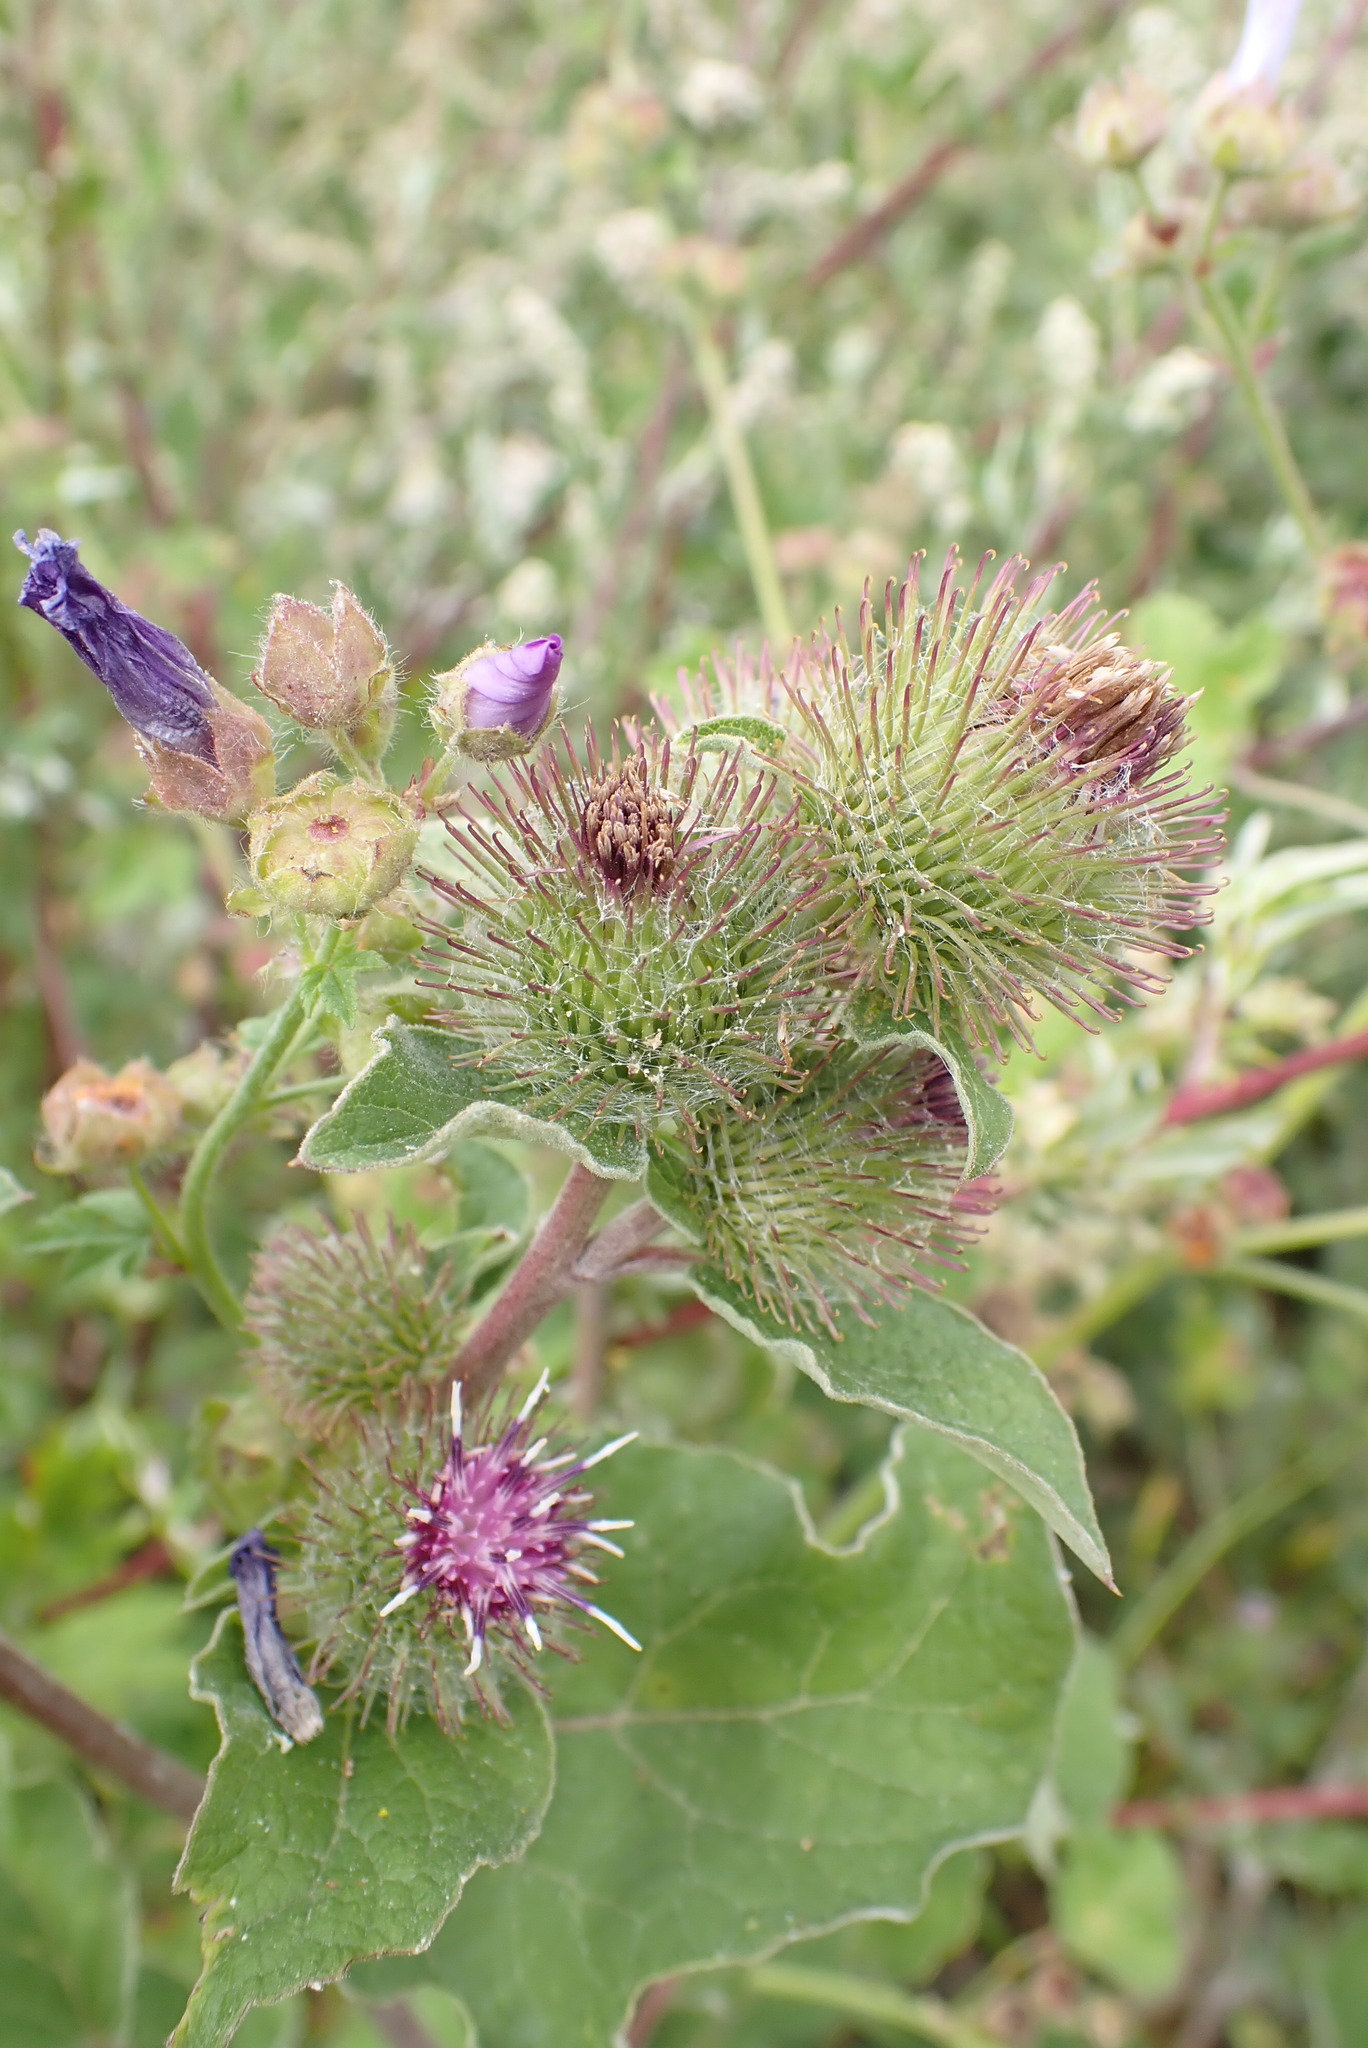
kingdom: Plantae
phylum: Tracheophyta
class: Magnoliopsida
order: Asterales
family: Asteraceae
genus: Arctium
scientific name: Arctium minus
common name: Lesser burdock
